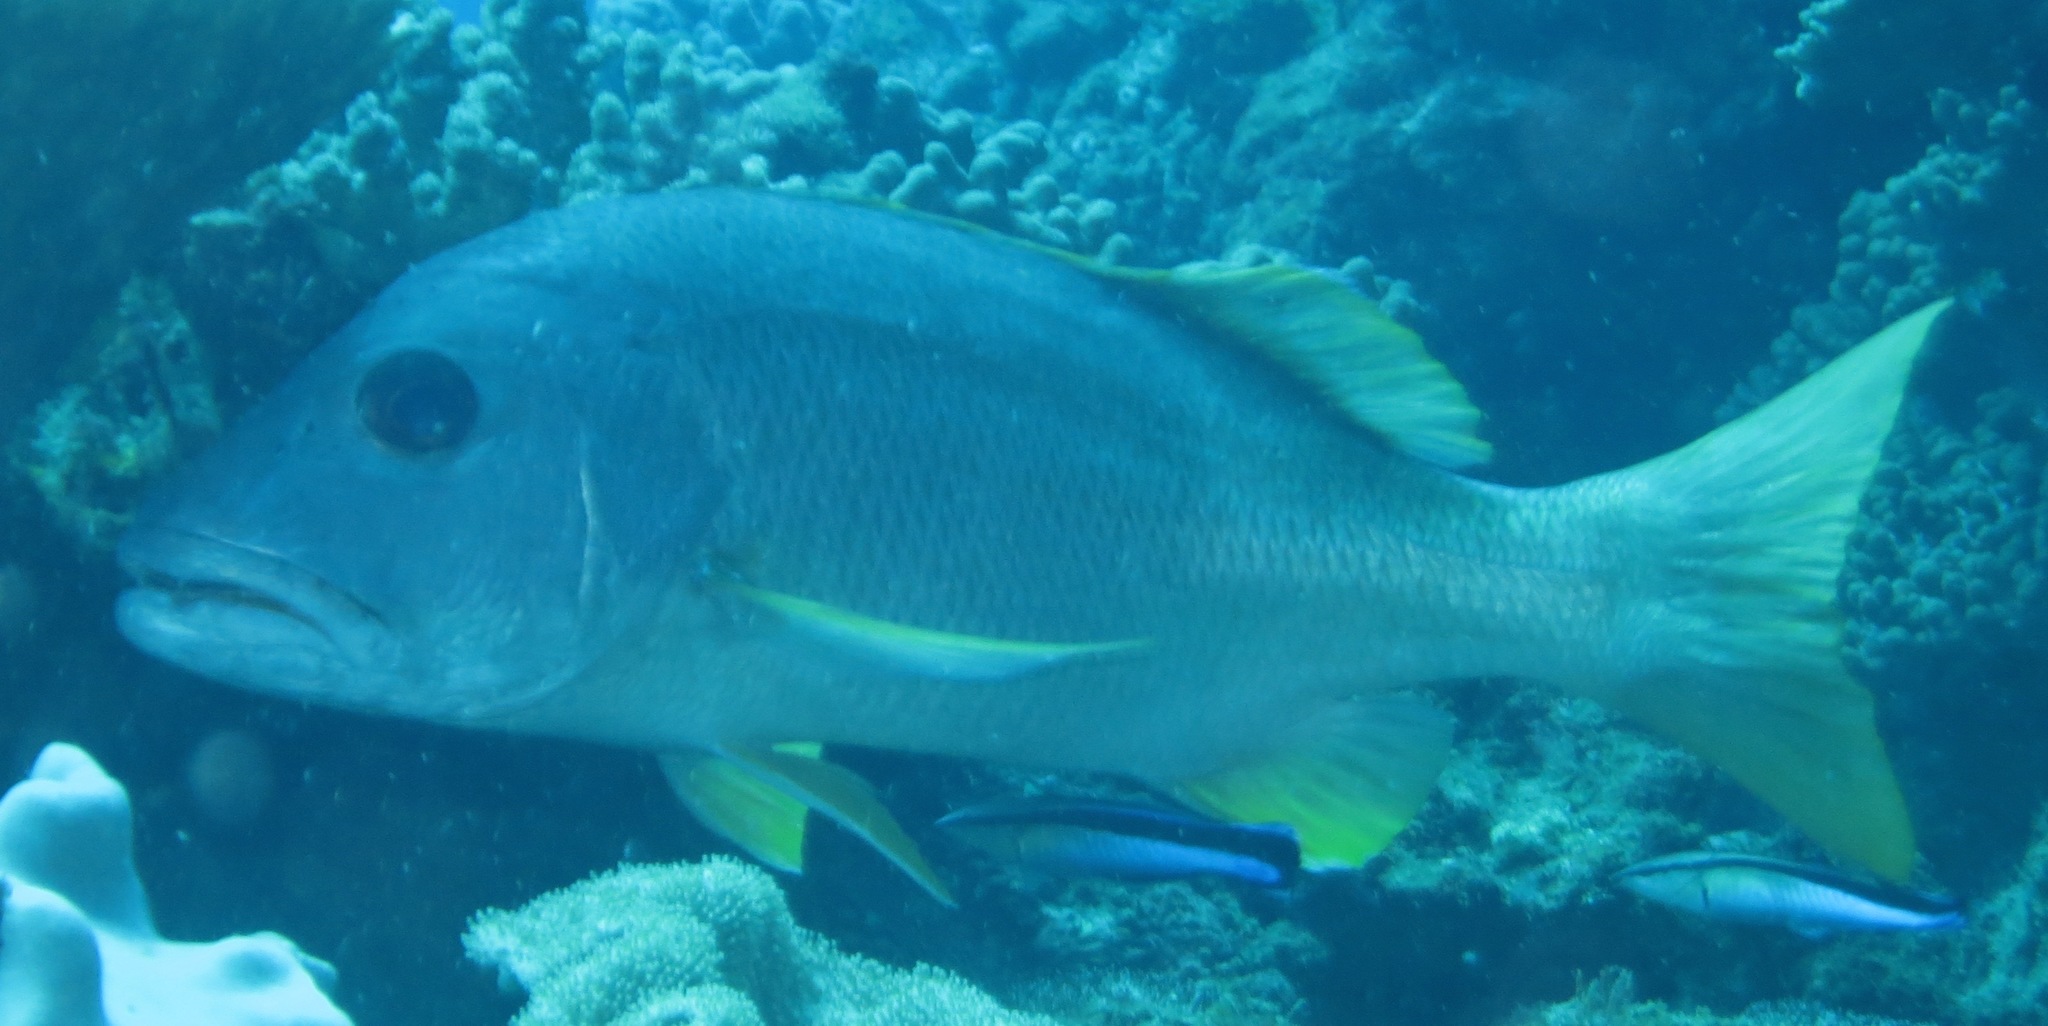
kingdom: Animalia
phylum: Chordata
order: Perciformes
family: Lutjanidae
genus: Lutjanus
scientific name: Lutjanus monostigma
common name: Onespot snapper
